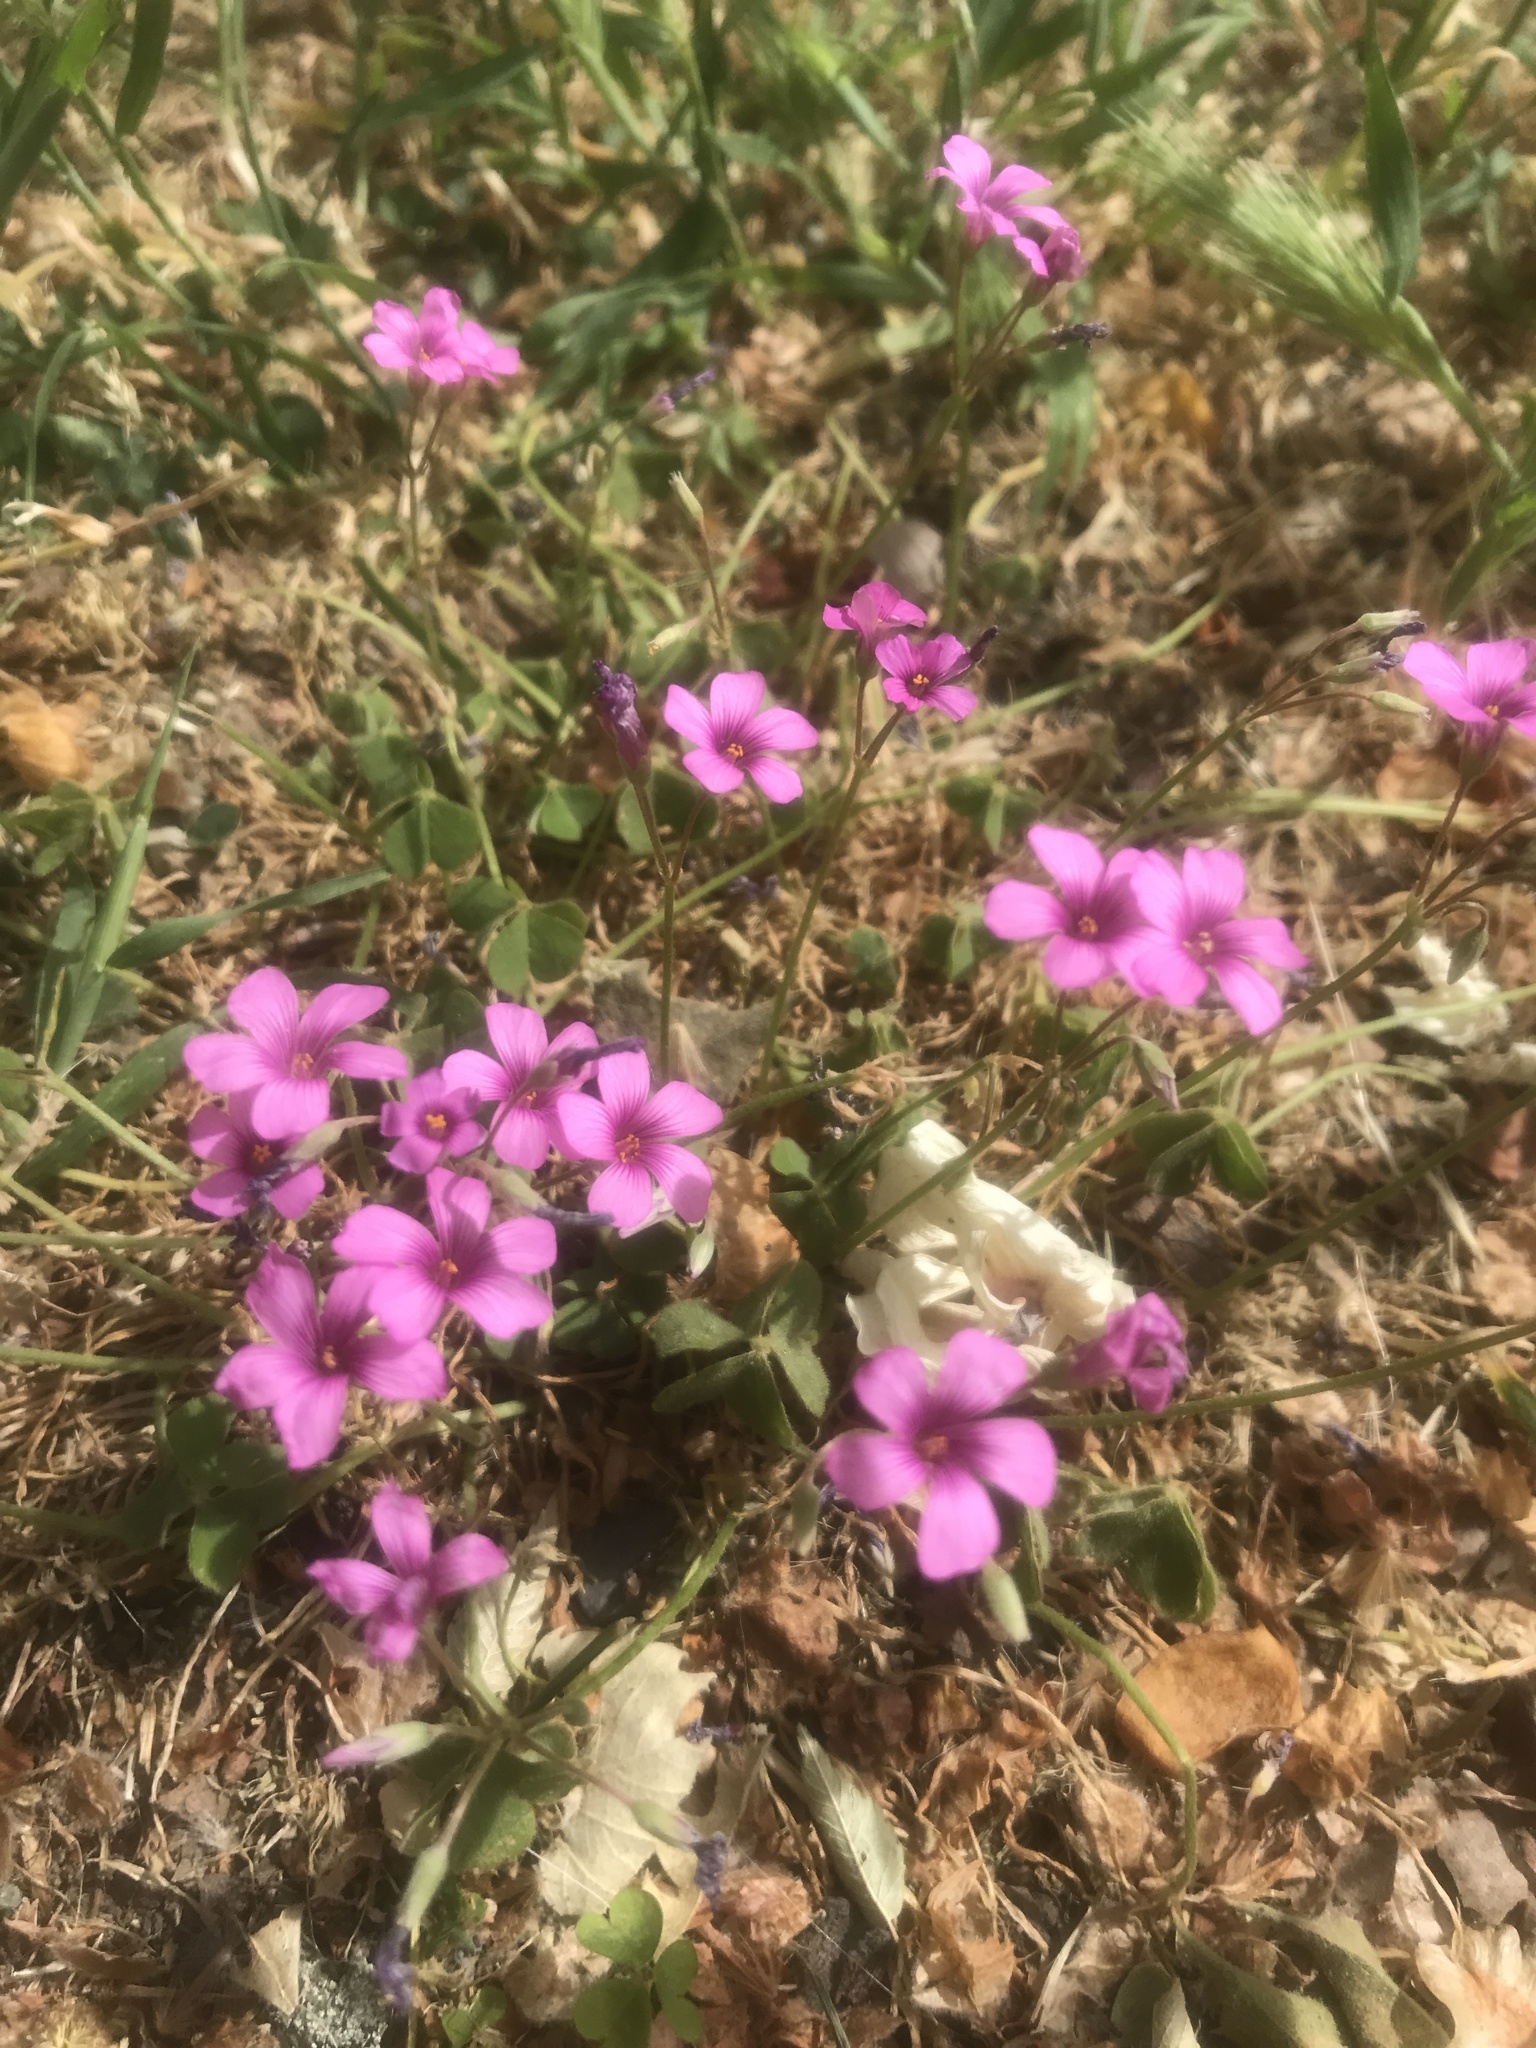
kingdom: Plantae
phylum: Tracheophyta
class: Magnoliopsida
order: Oxalidales
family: Oxalidaceae
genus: Oxalis
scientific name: Oxalis articulata
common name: Pink-sorrel
